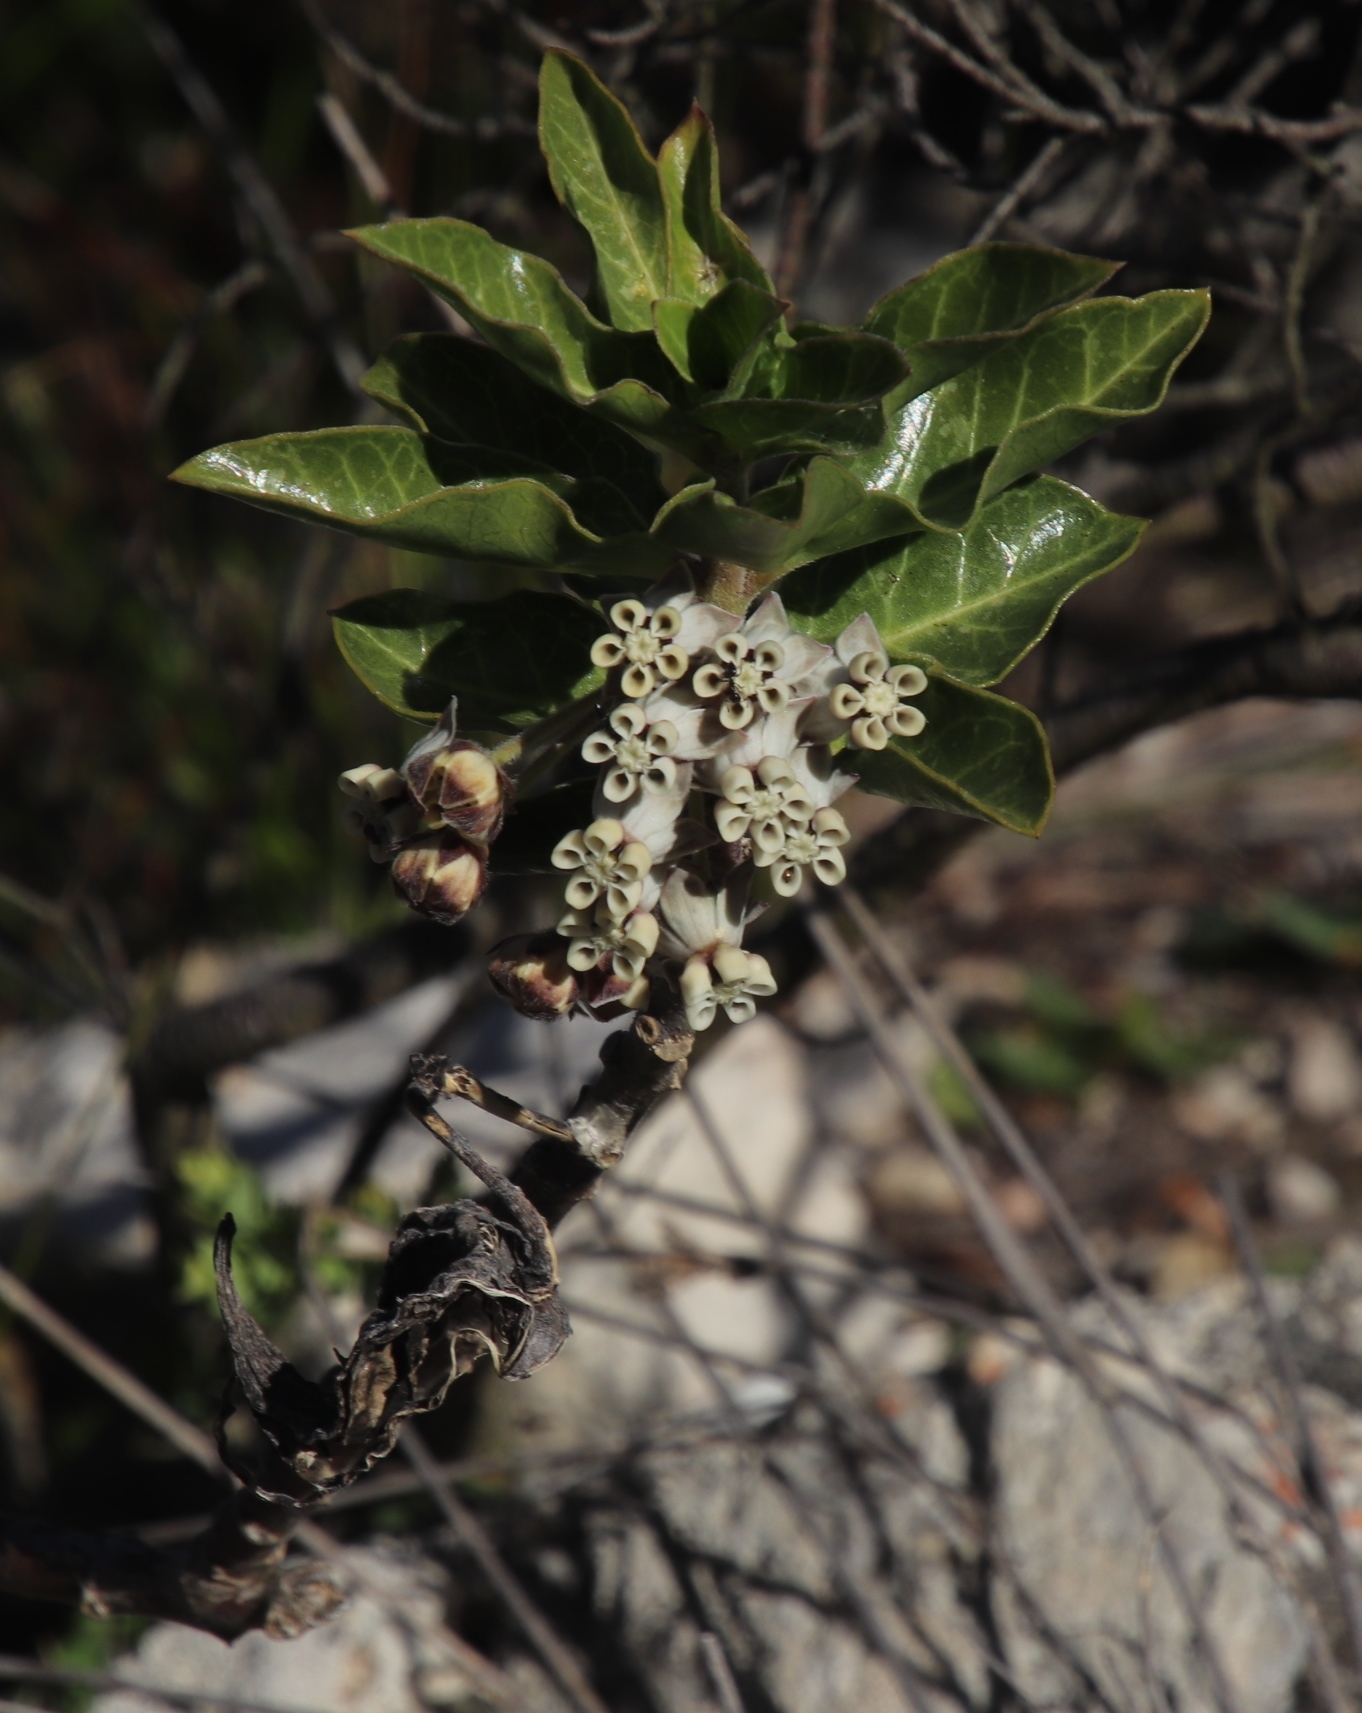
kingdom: Plantae
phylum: Tracheophyta
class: Magnoliopsida
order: Gentianales
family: Apocynaceae
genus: Gomphocarpus
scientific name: Gomphocarpus cancellatus
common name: Wild cotton
